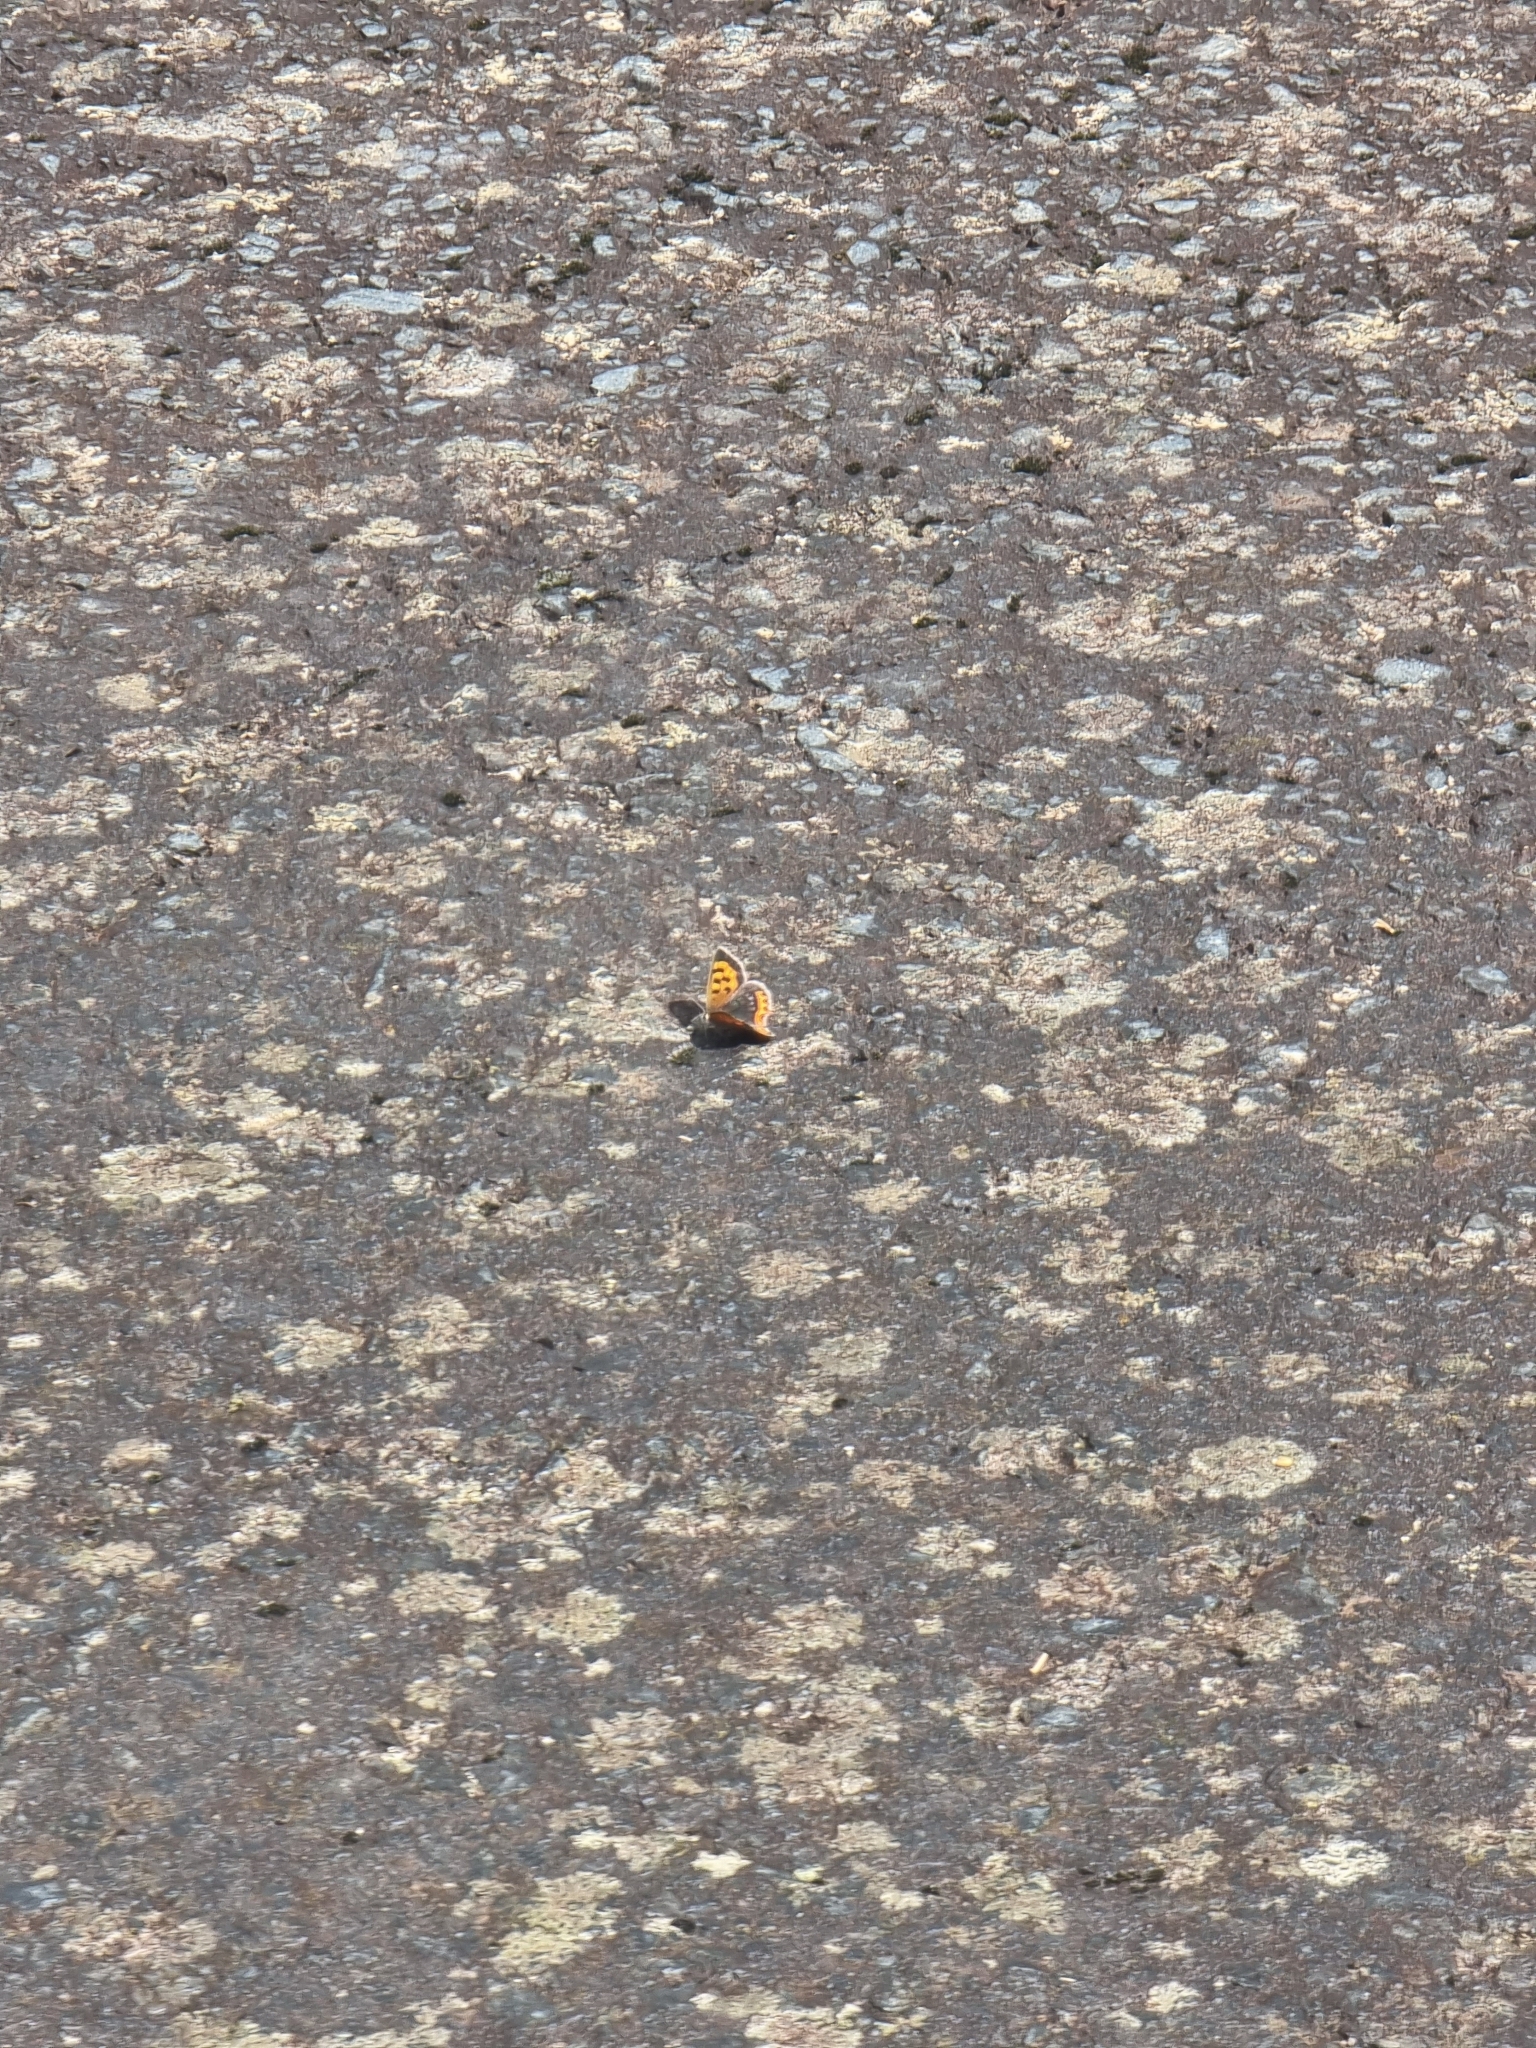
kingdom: Animalia
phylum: Arthropoda
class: Insecta
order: Lepidoptera
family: Lycaenidae
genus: Lycaena
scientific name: Lycaena phlaeas
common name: Small copper
